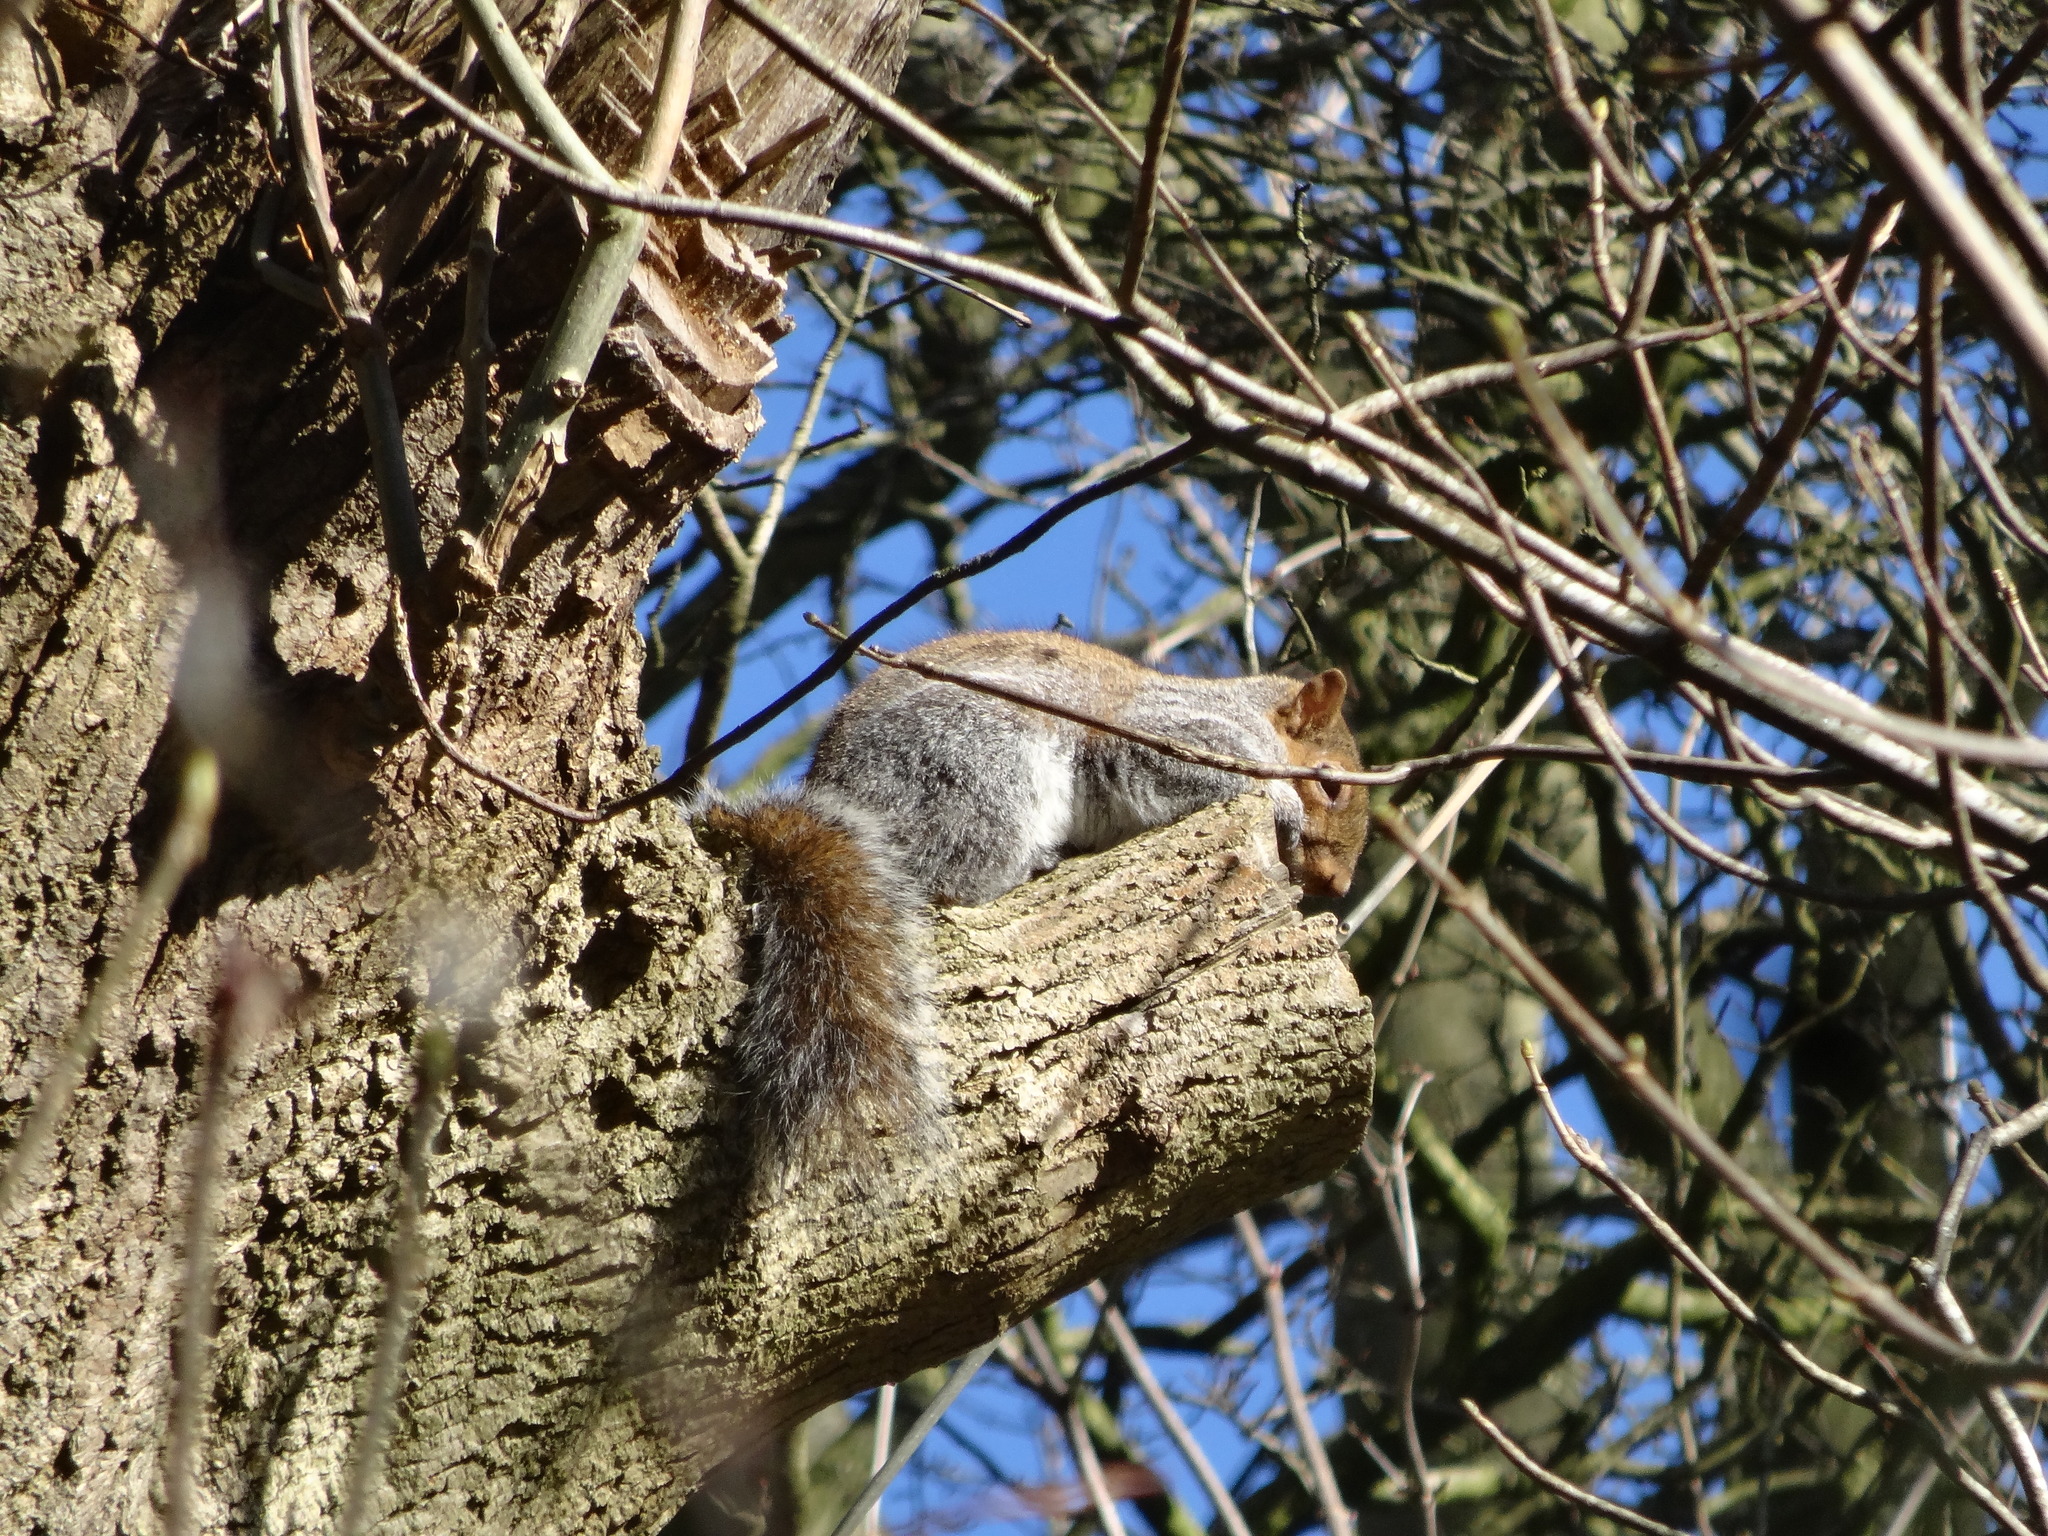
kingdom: Animalia
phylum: Chordata
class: Mammalia
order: Rodentia
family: Sciuridae
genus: Sciurus
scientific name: Sciurus carolinensis
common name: Eastern gray squirrel
